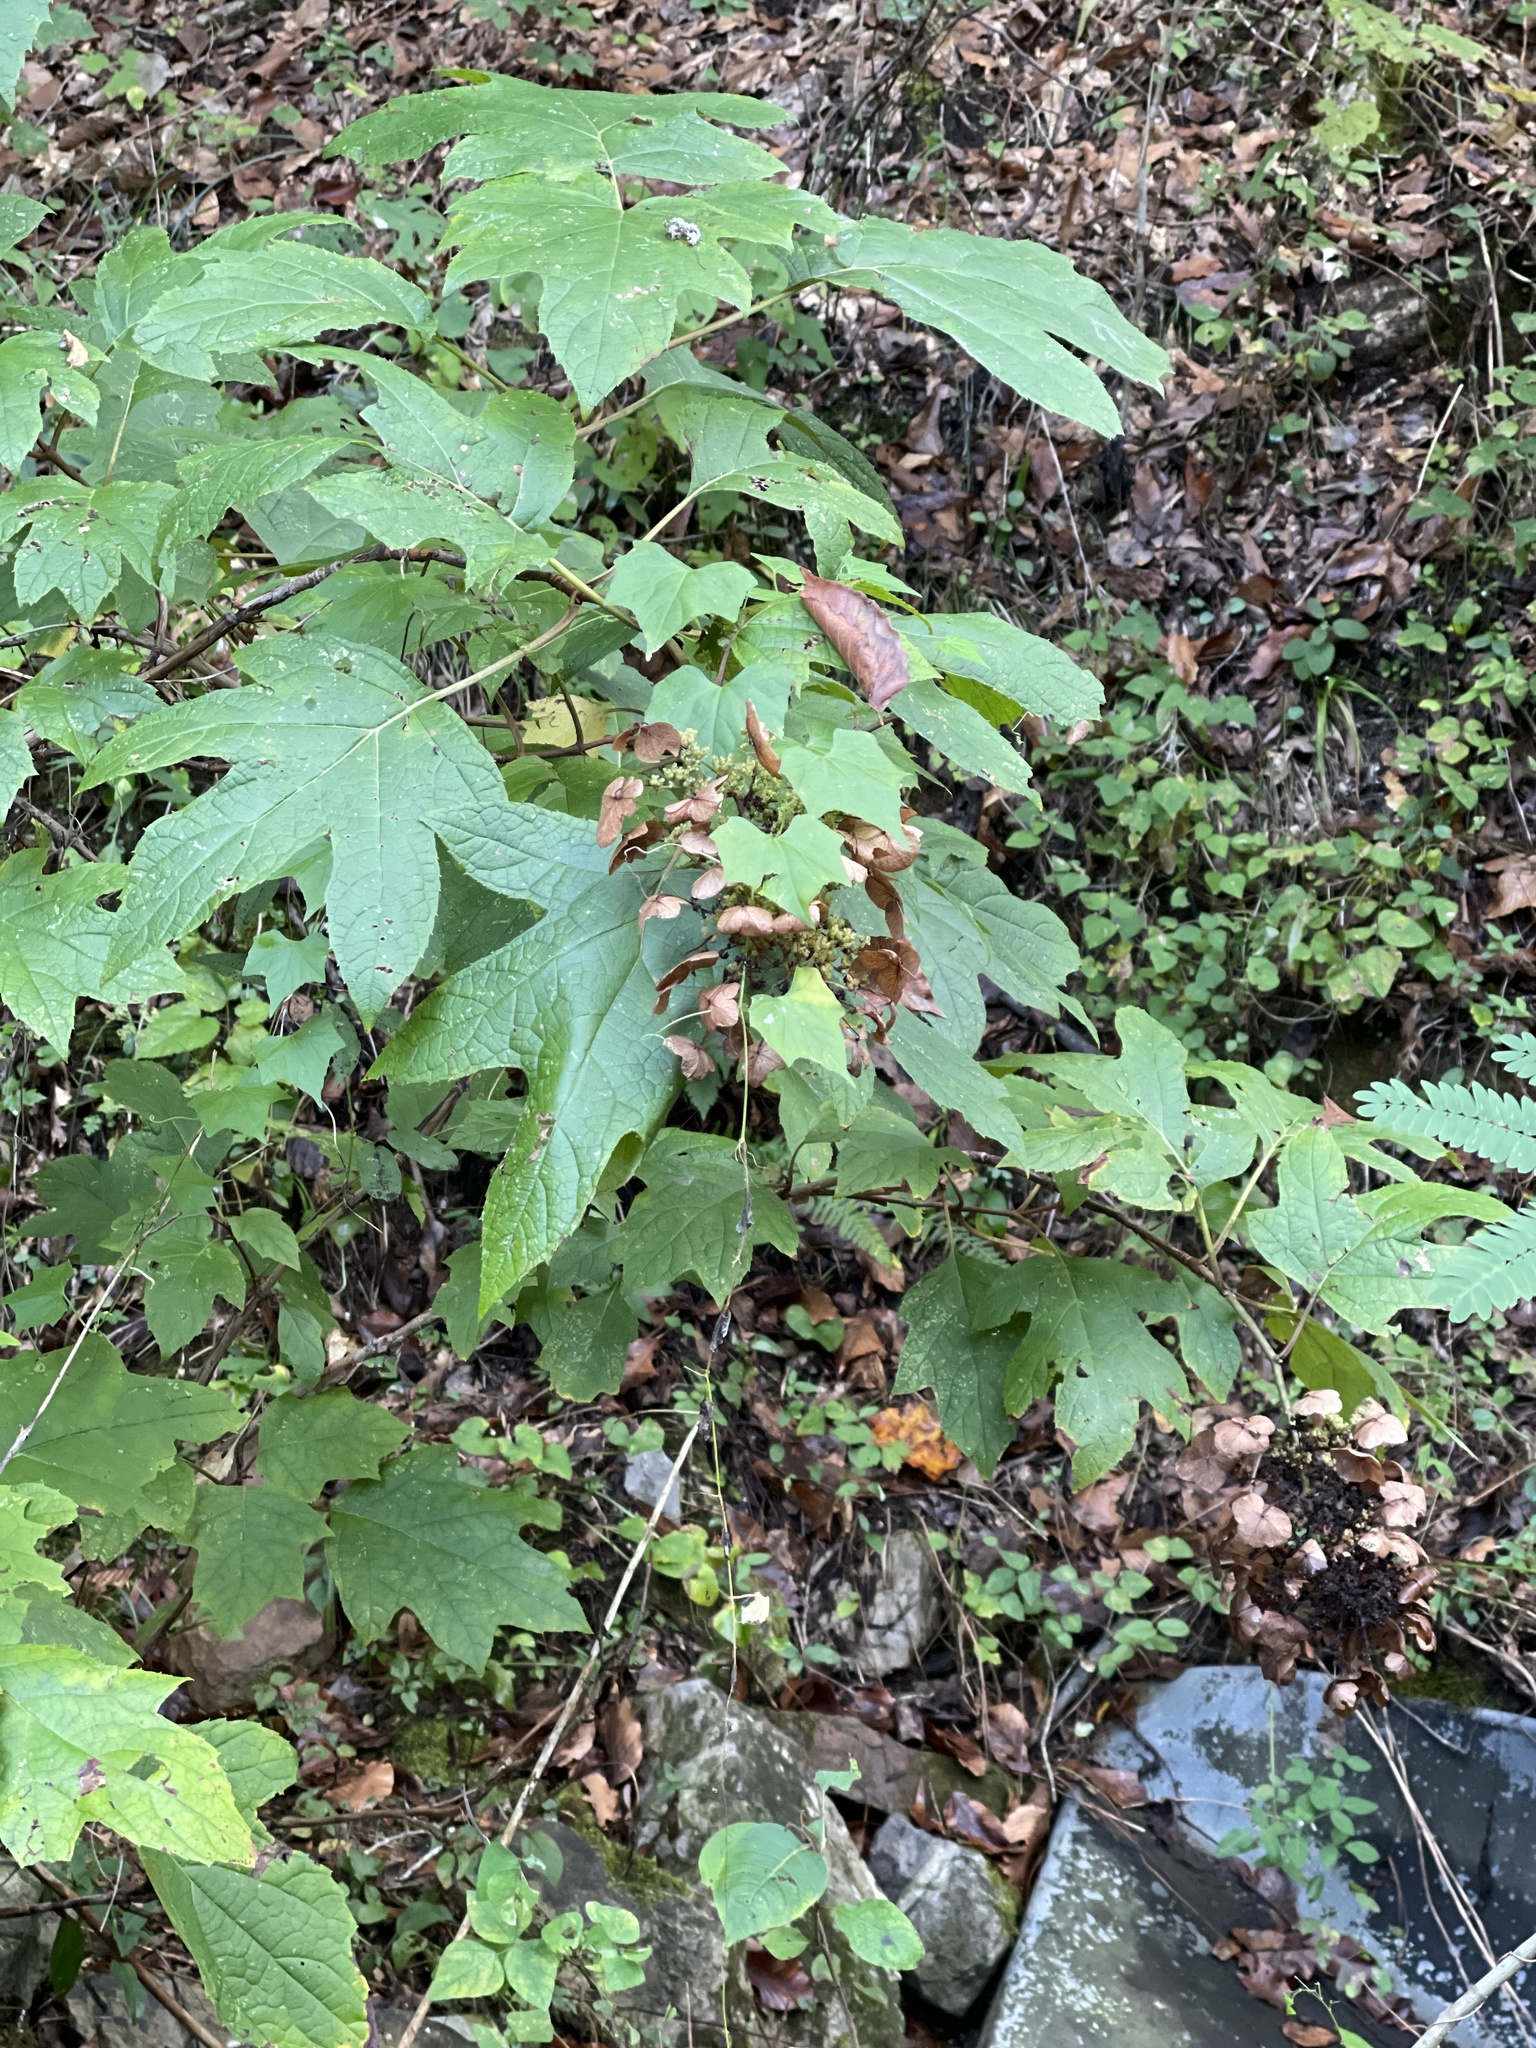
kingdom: Plantae
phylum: Tracheophyta
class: Magnoliopsida
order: Cornales
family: Hydrangeaceae
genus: Hydrangea
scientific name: Hydrangea quercifolia
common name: Oak-leaf hydrangea
